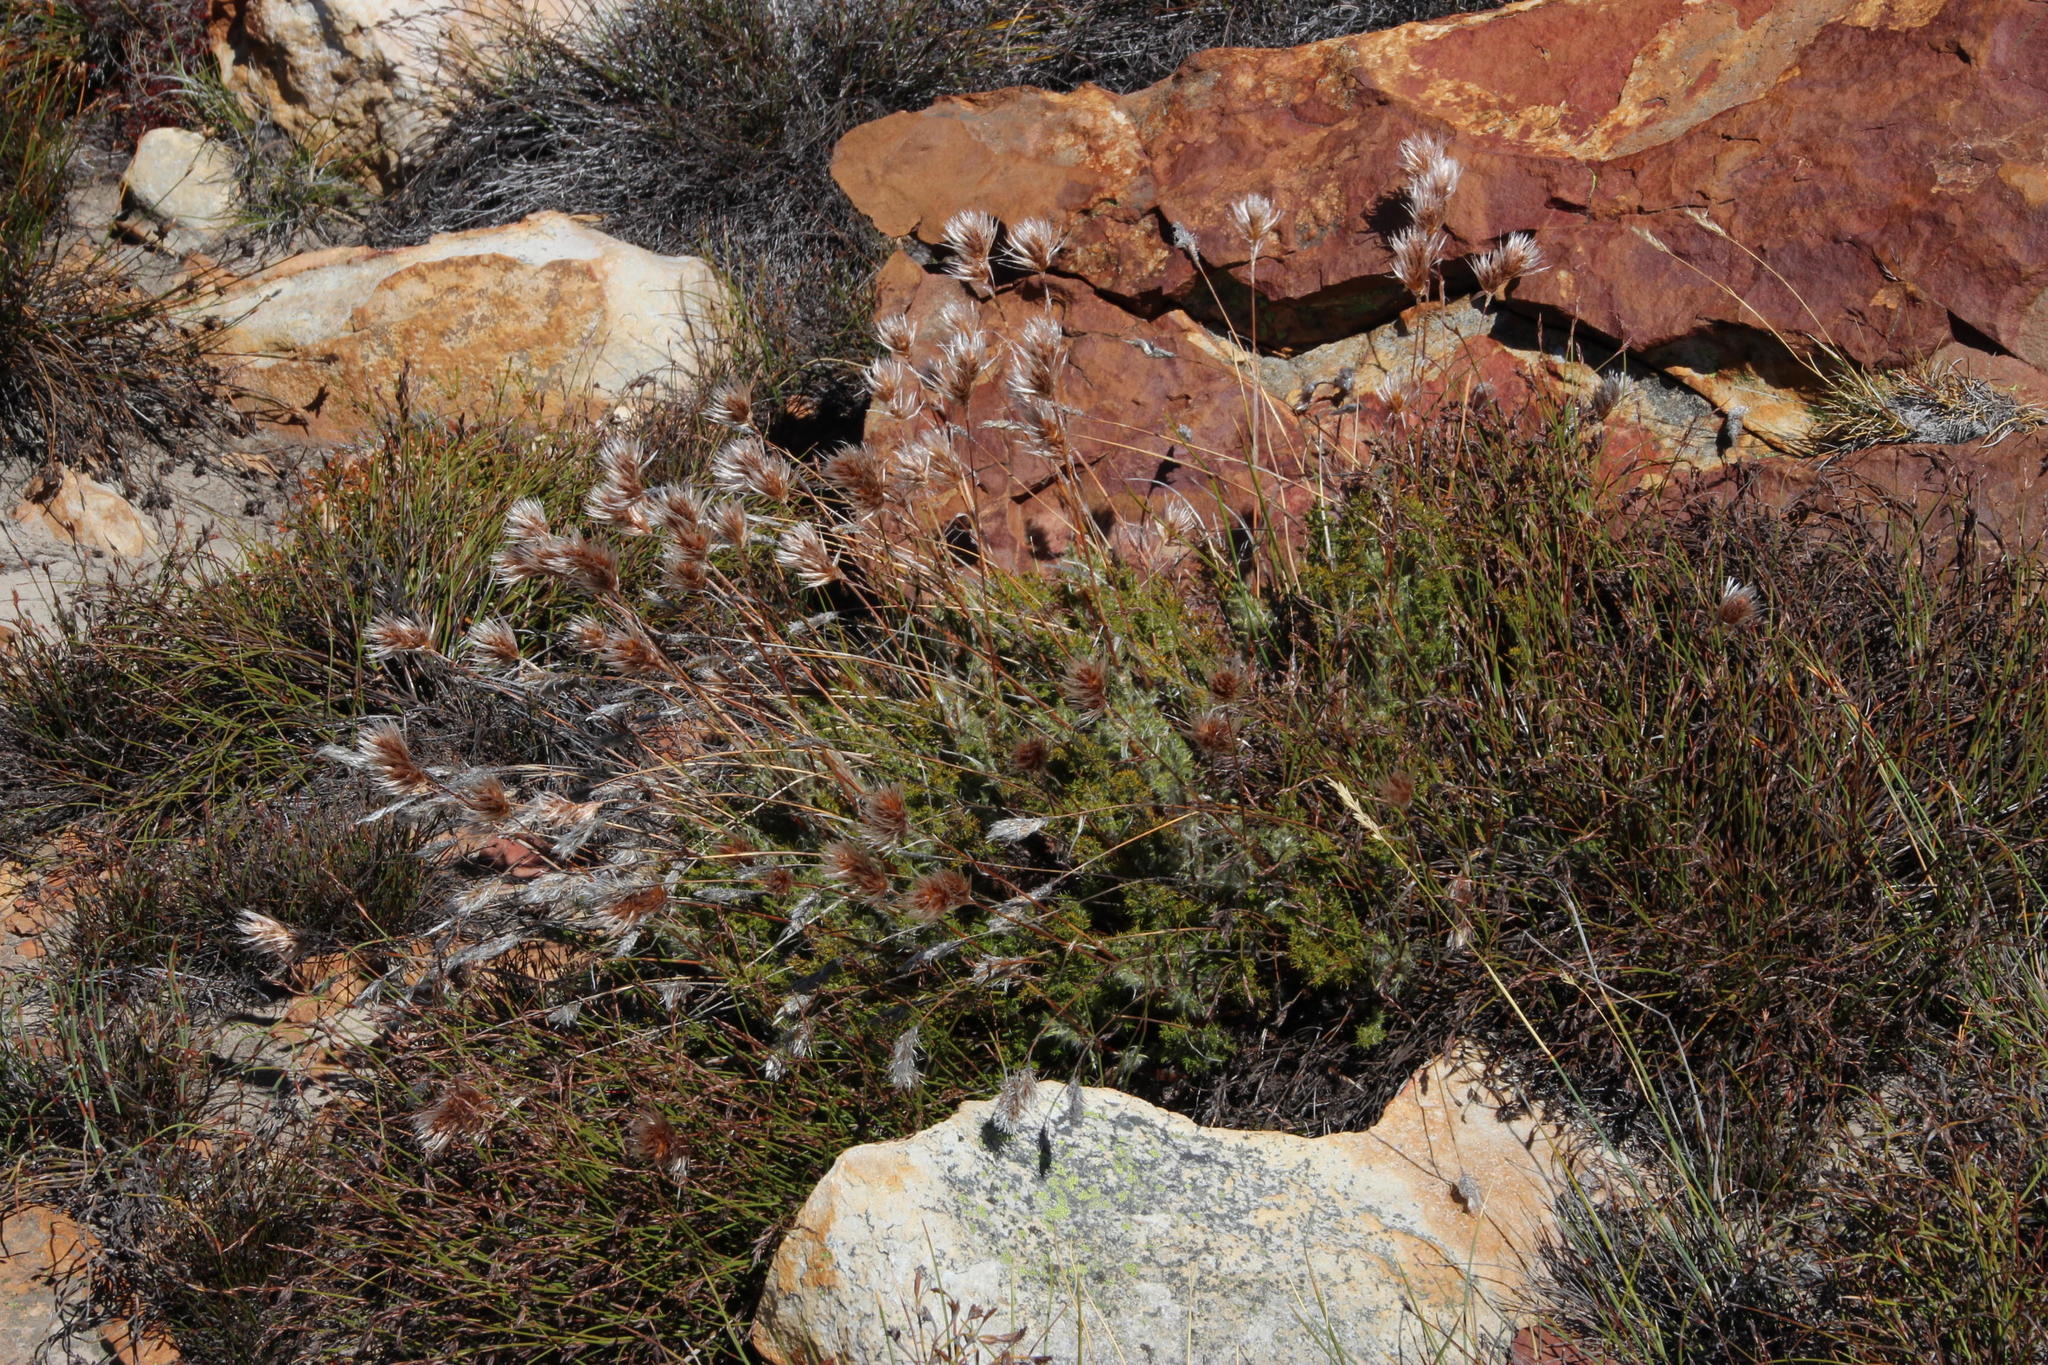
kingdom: Plantae
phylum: Tracheophyta
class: Liliopsida
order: Poales
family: Restionaceae
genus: Thamnochortus
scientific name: Thamnochortus acuminatus
